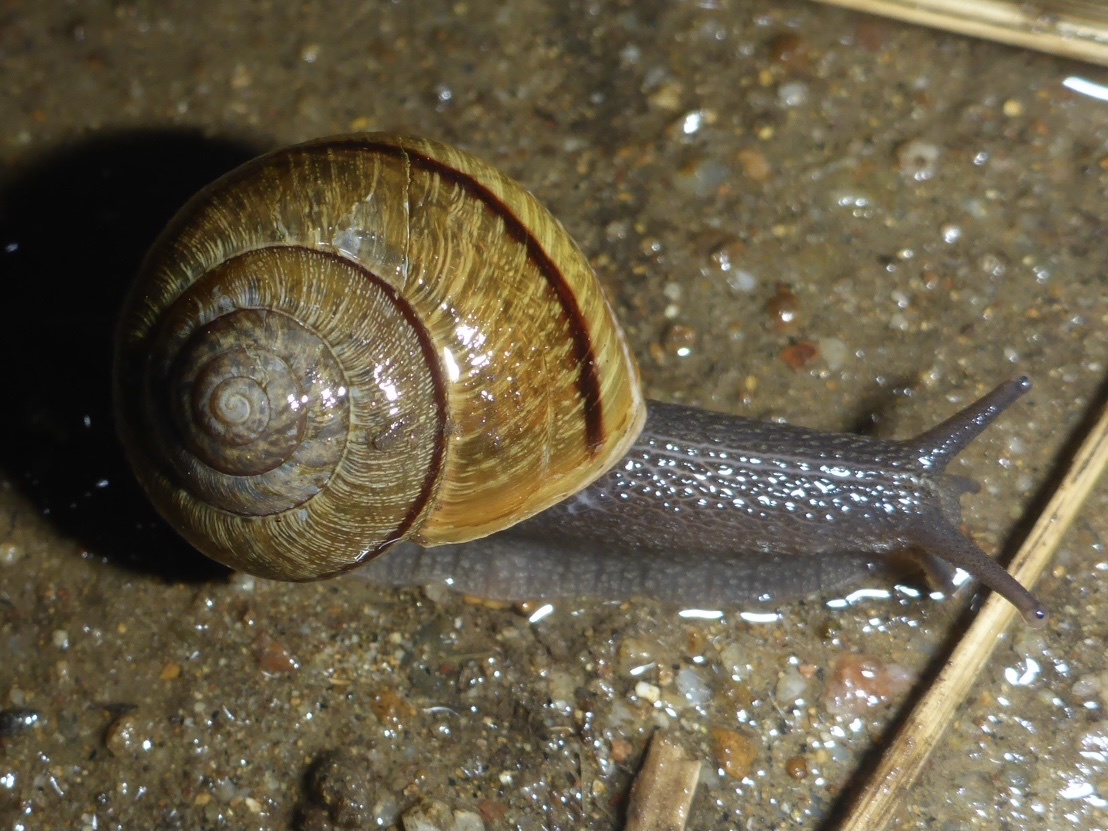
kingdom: Animalia
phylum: Mollusca
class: Gastropoda
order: Stylommatophora
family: Xanthonychidae
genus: Helminthoglypta
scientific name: Helminthoglypta nickliniana
